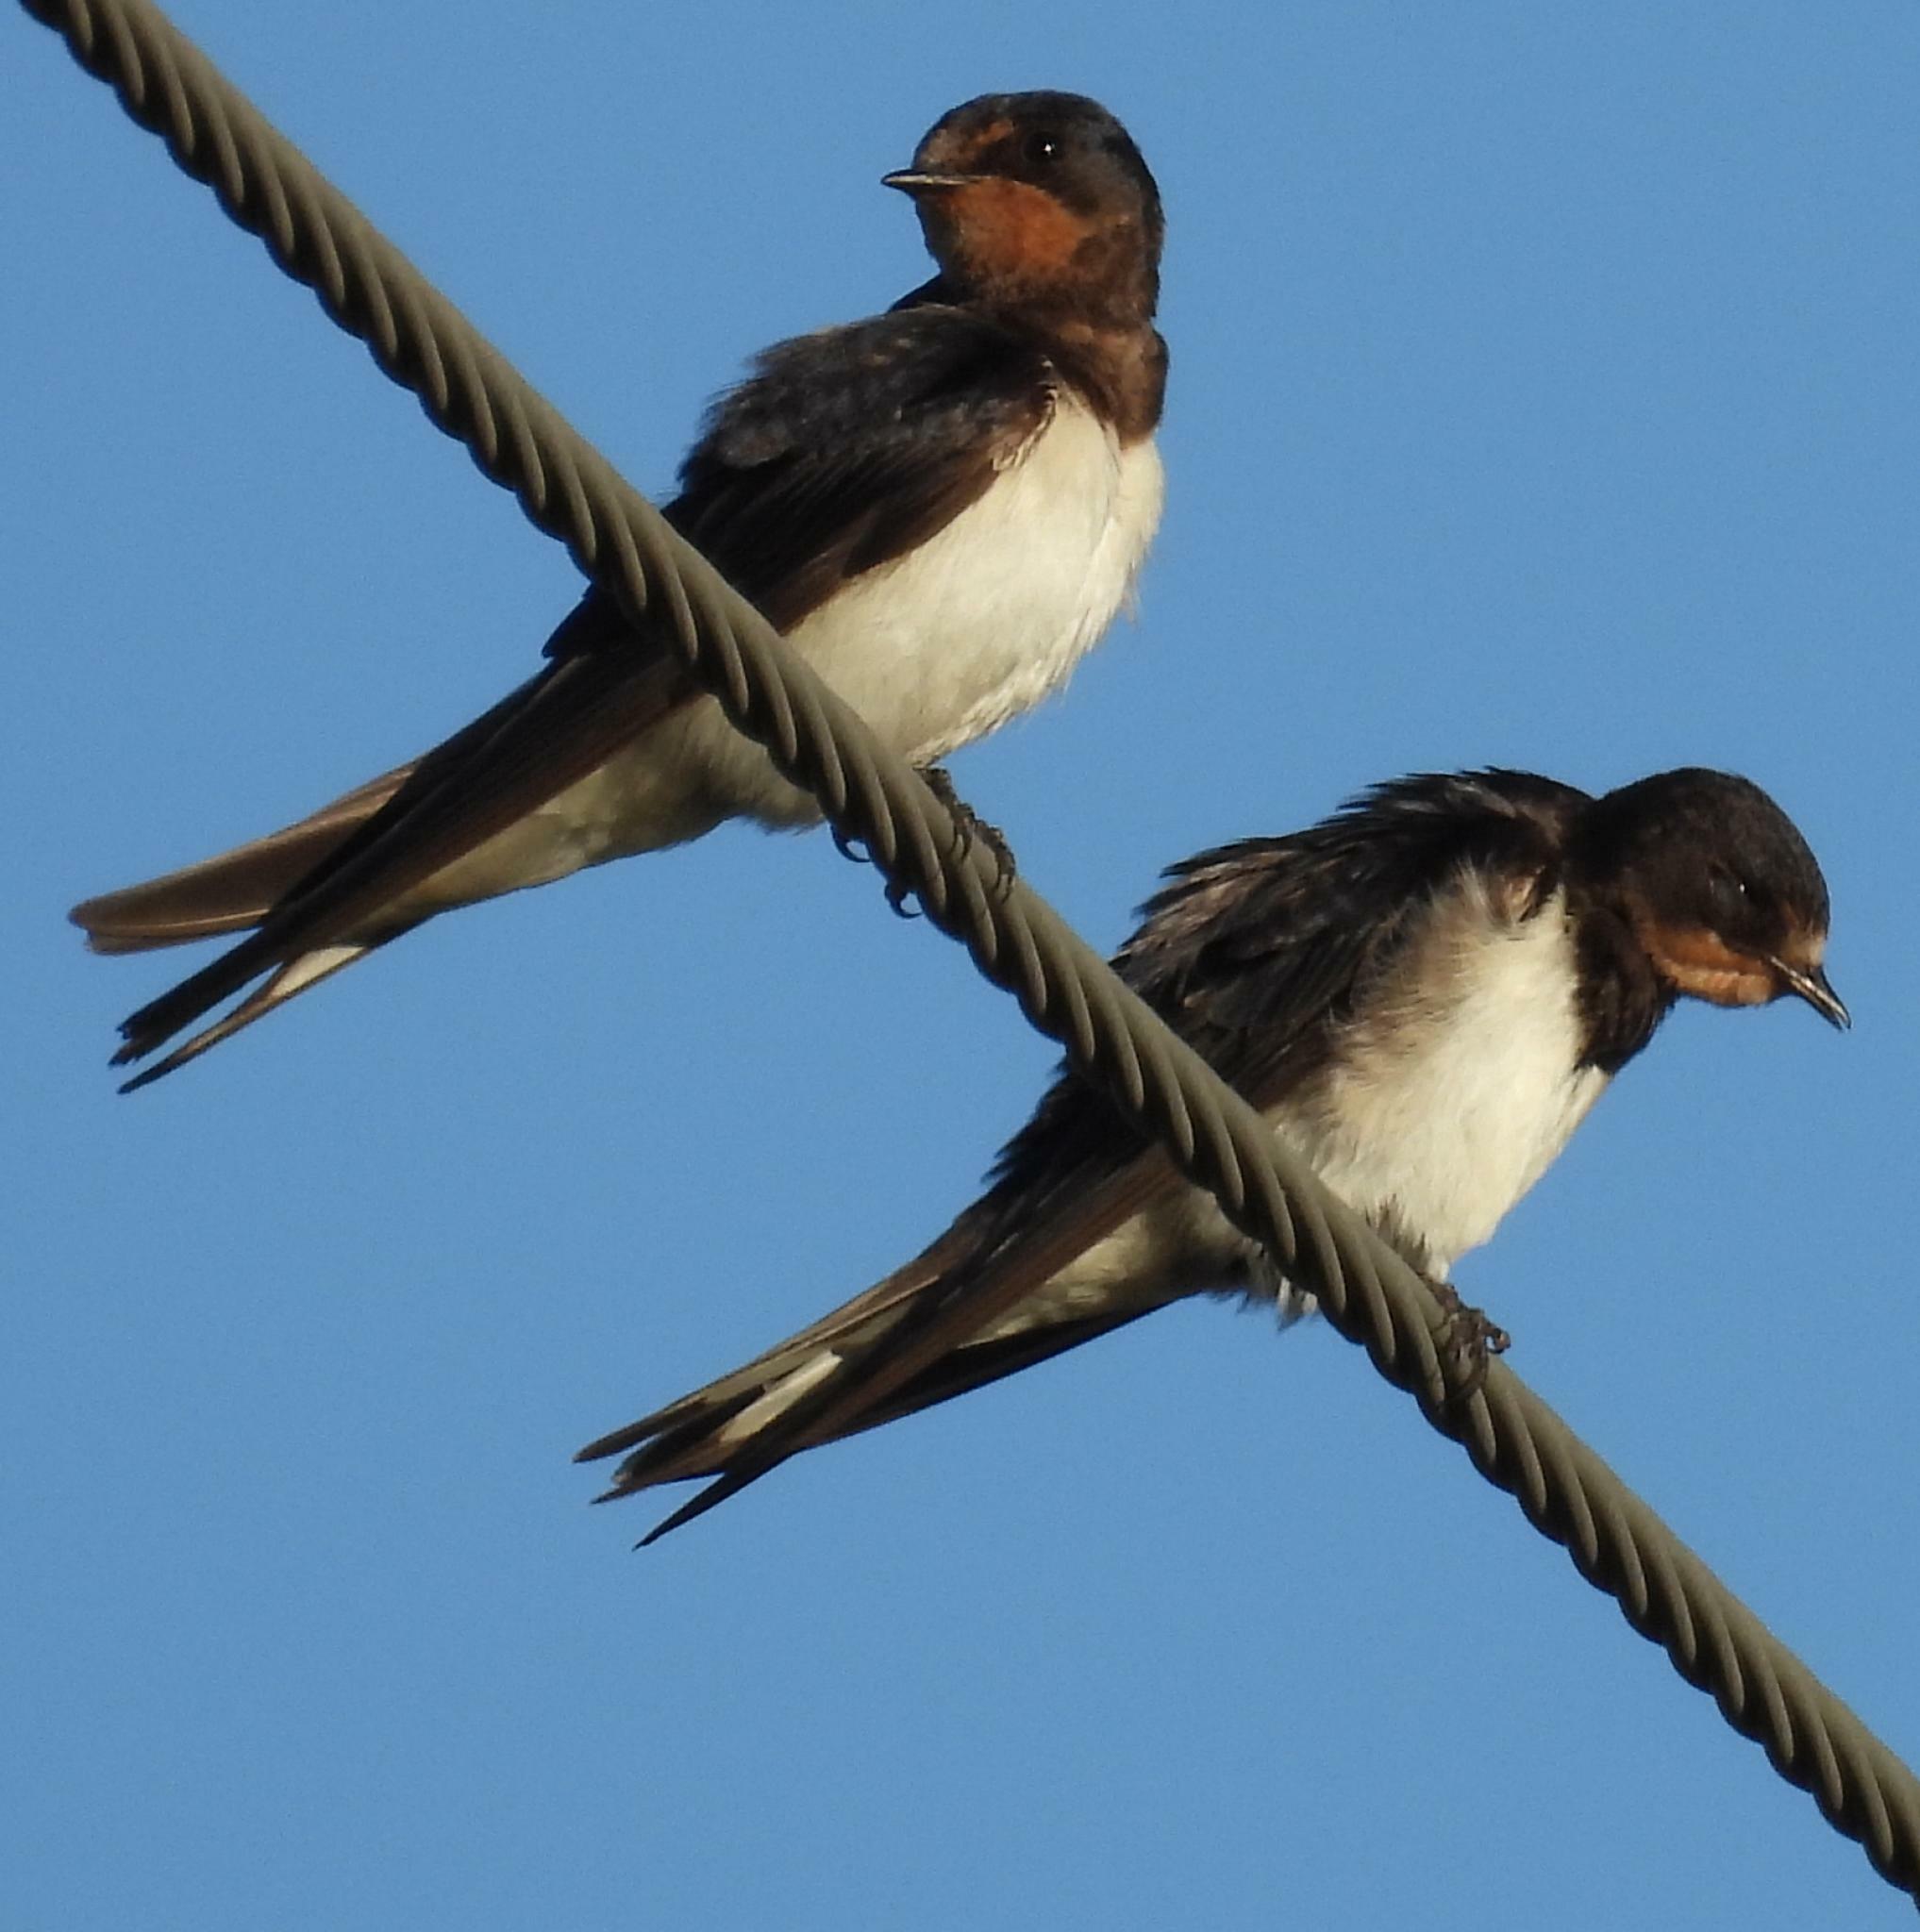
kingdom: Animalia
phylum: Chordata
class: Aves
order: Passeriformes
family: Hirundinidae
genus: Hirundo
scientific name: Hirundo rustica
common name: Barn swallow
